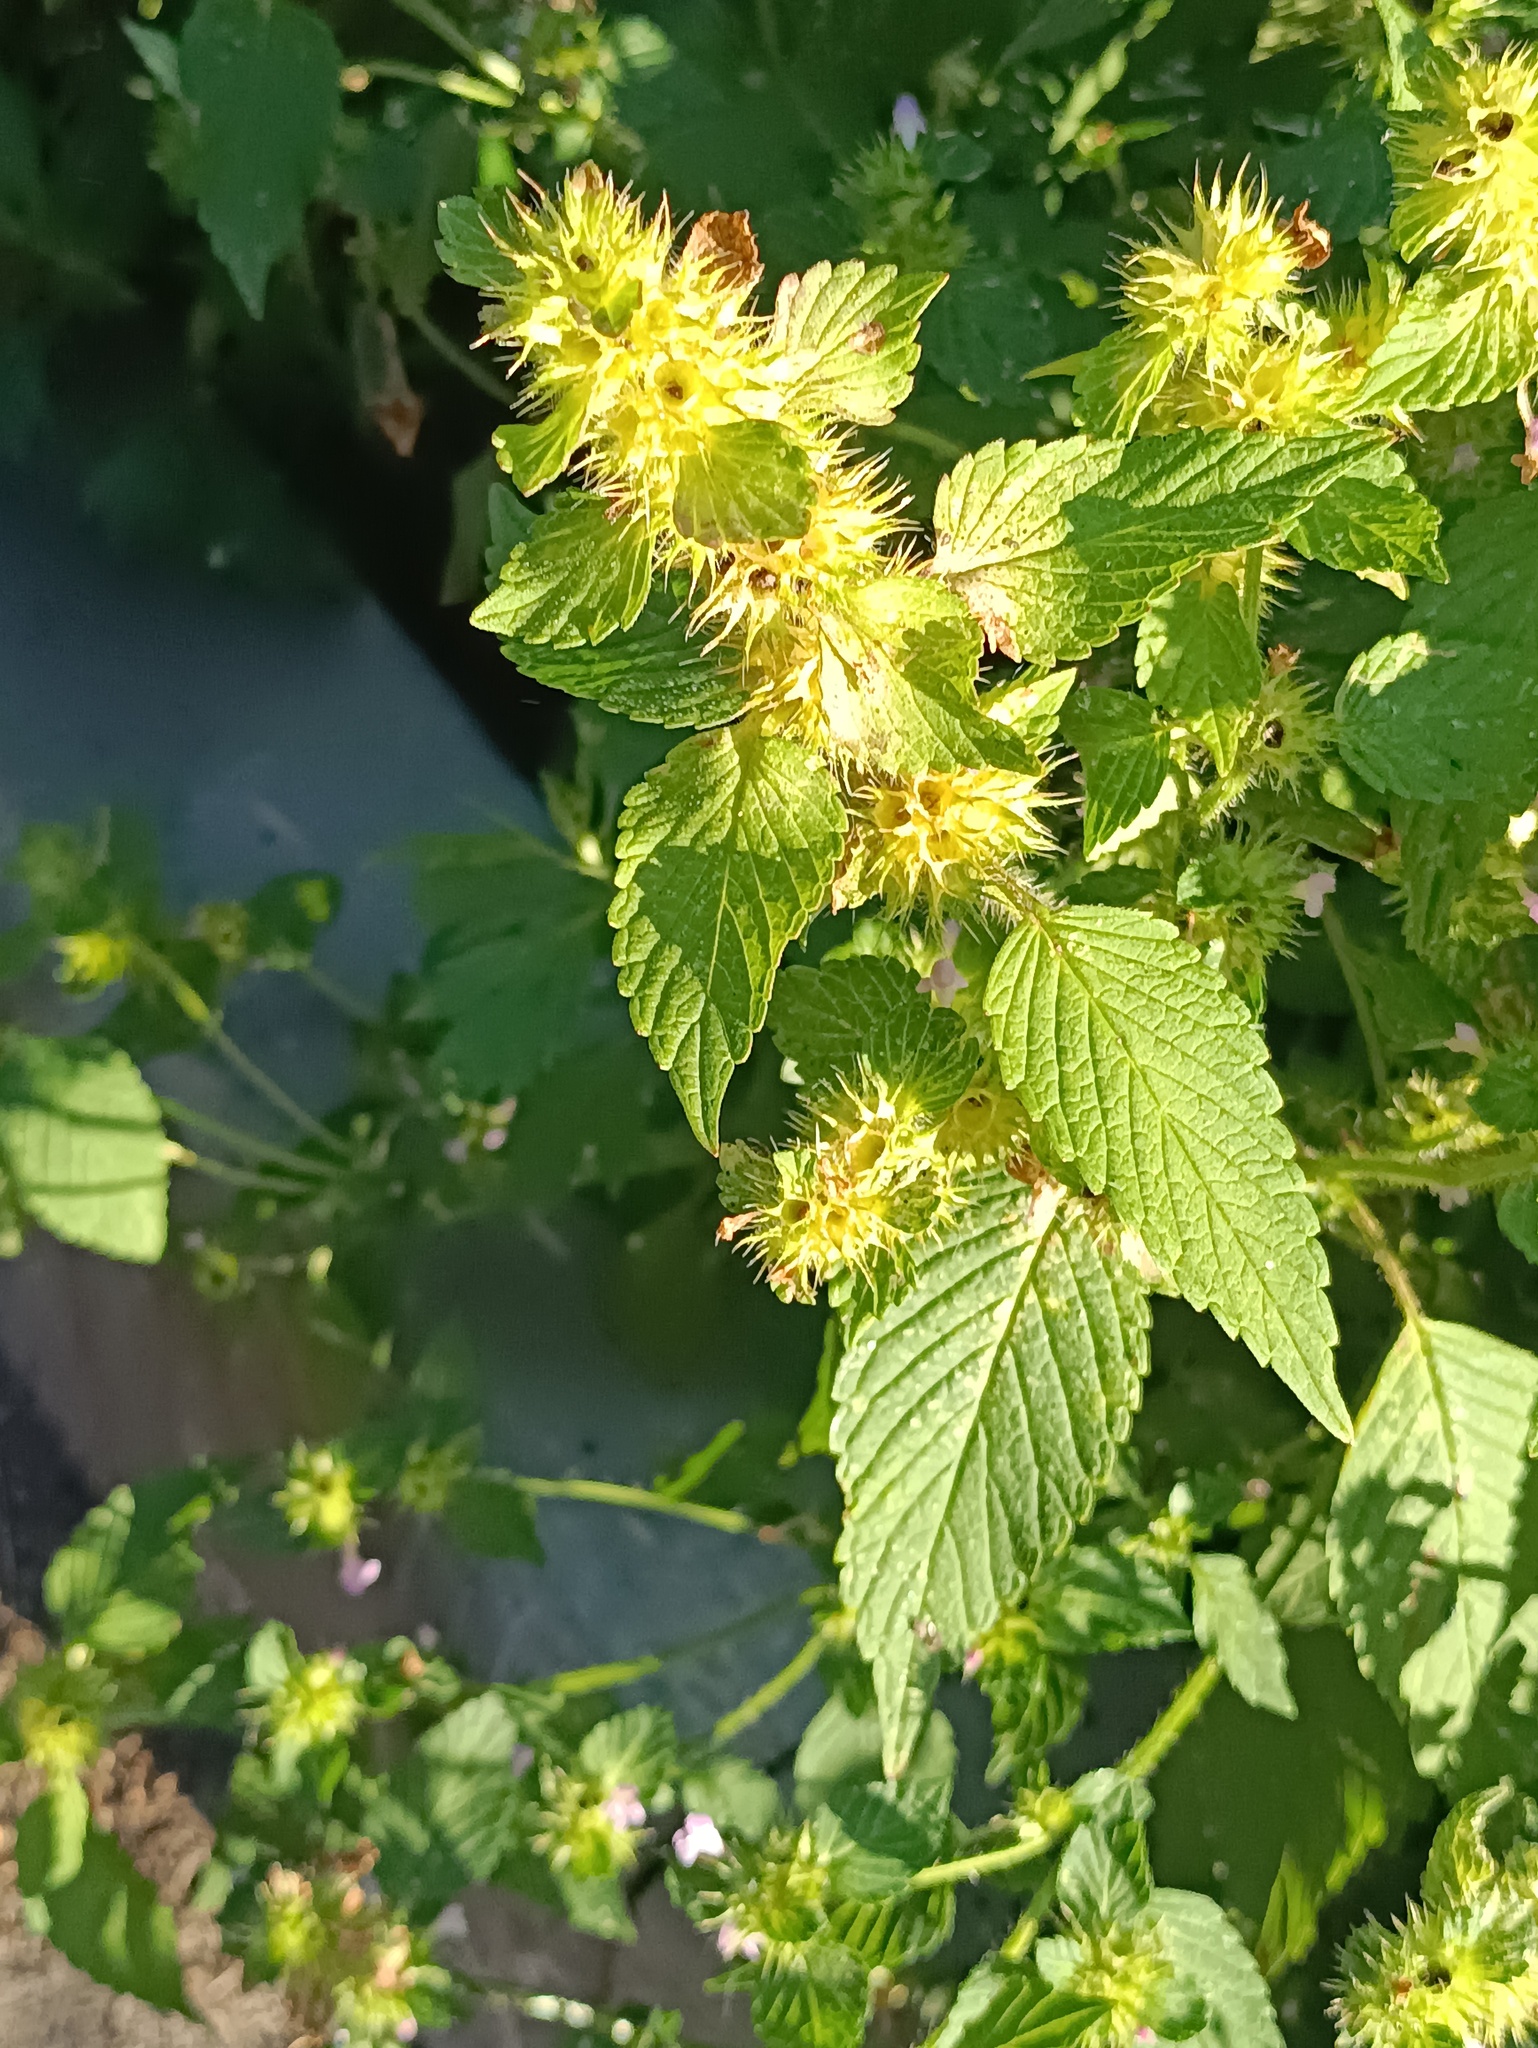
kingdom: Plantae
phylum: Tracheophyta
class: Magnoliopsida
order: Lamiales
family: Lamiaceae
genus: Galeopsis
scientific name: Galeopsis bifida
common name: Bifid hemp-nettle
